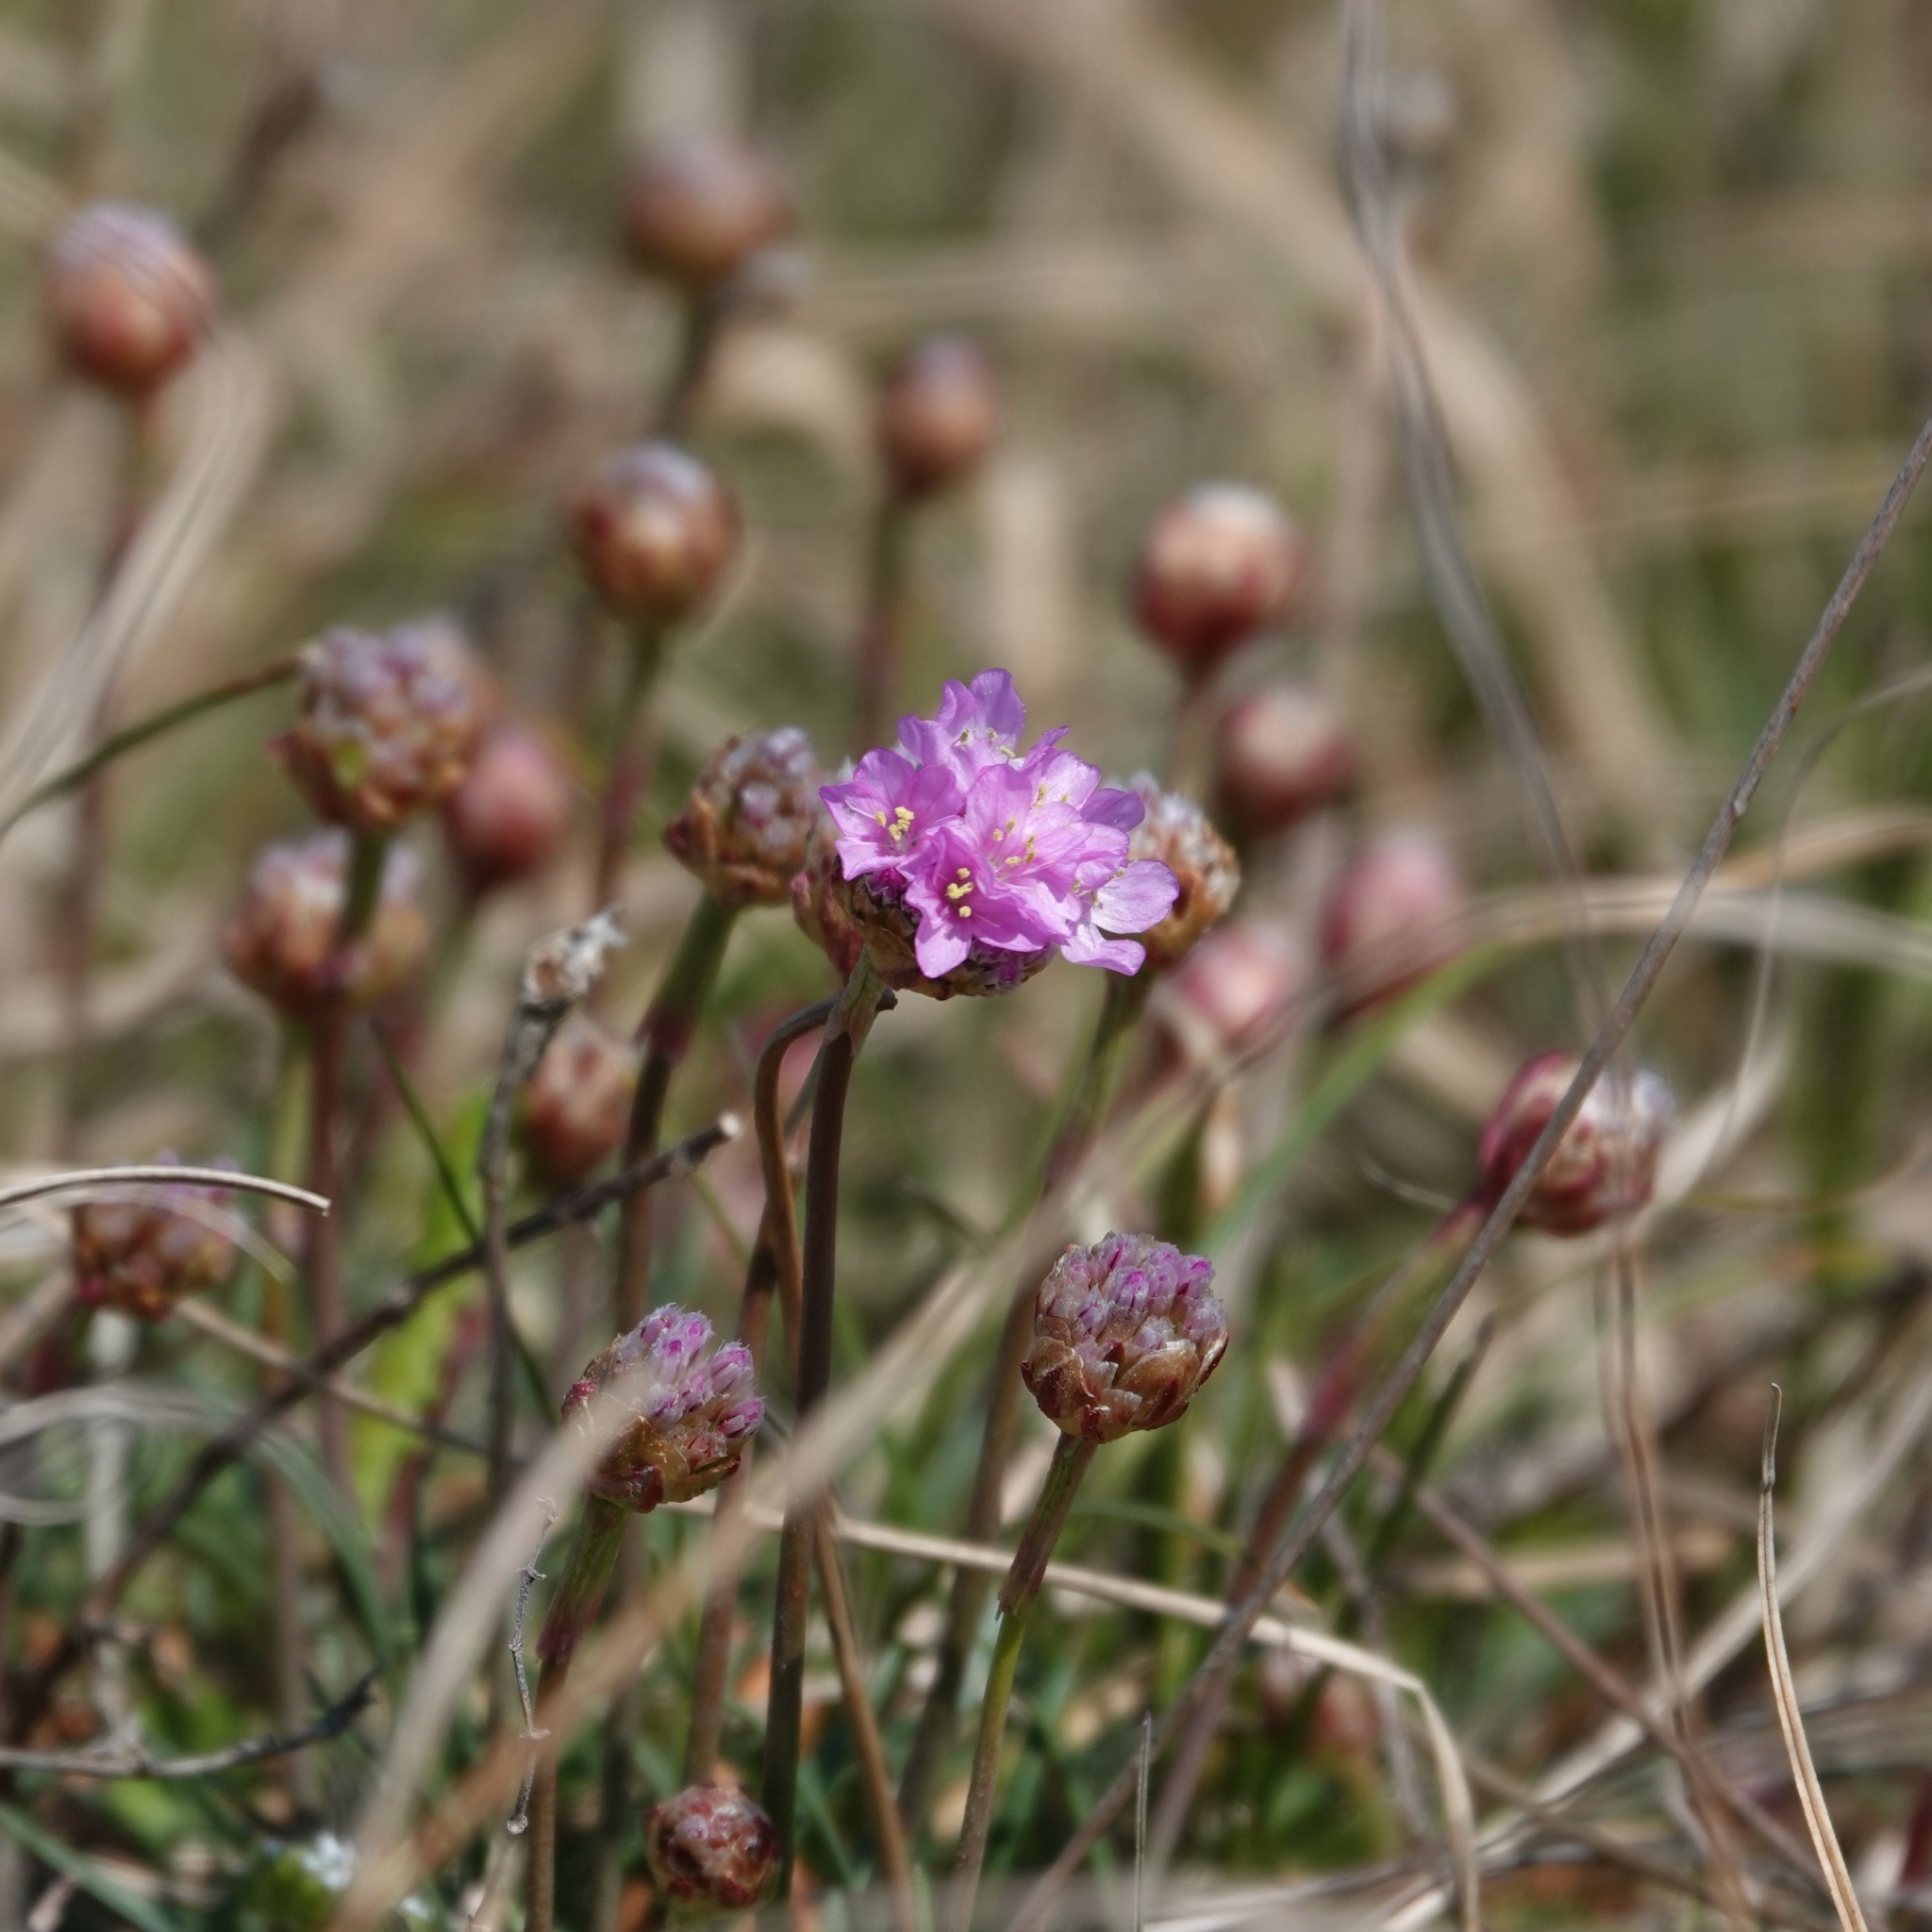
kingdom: Plantae
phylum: Tracheophyta
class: Magnoliopsida
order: Caryophyllales
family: Plumbaginaceae
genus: Armeria
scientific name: Armeria maritima
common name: Thrift
